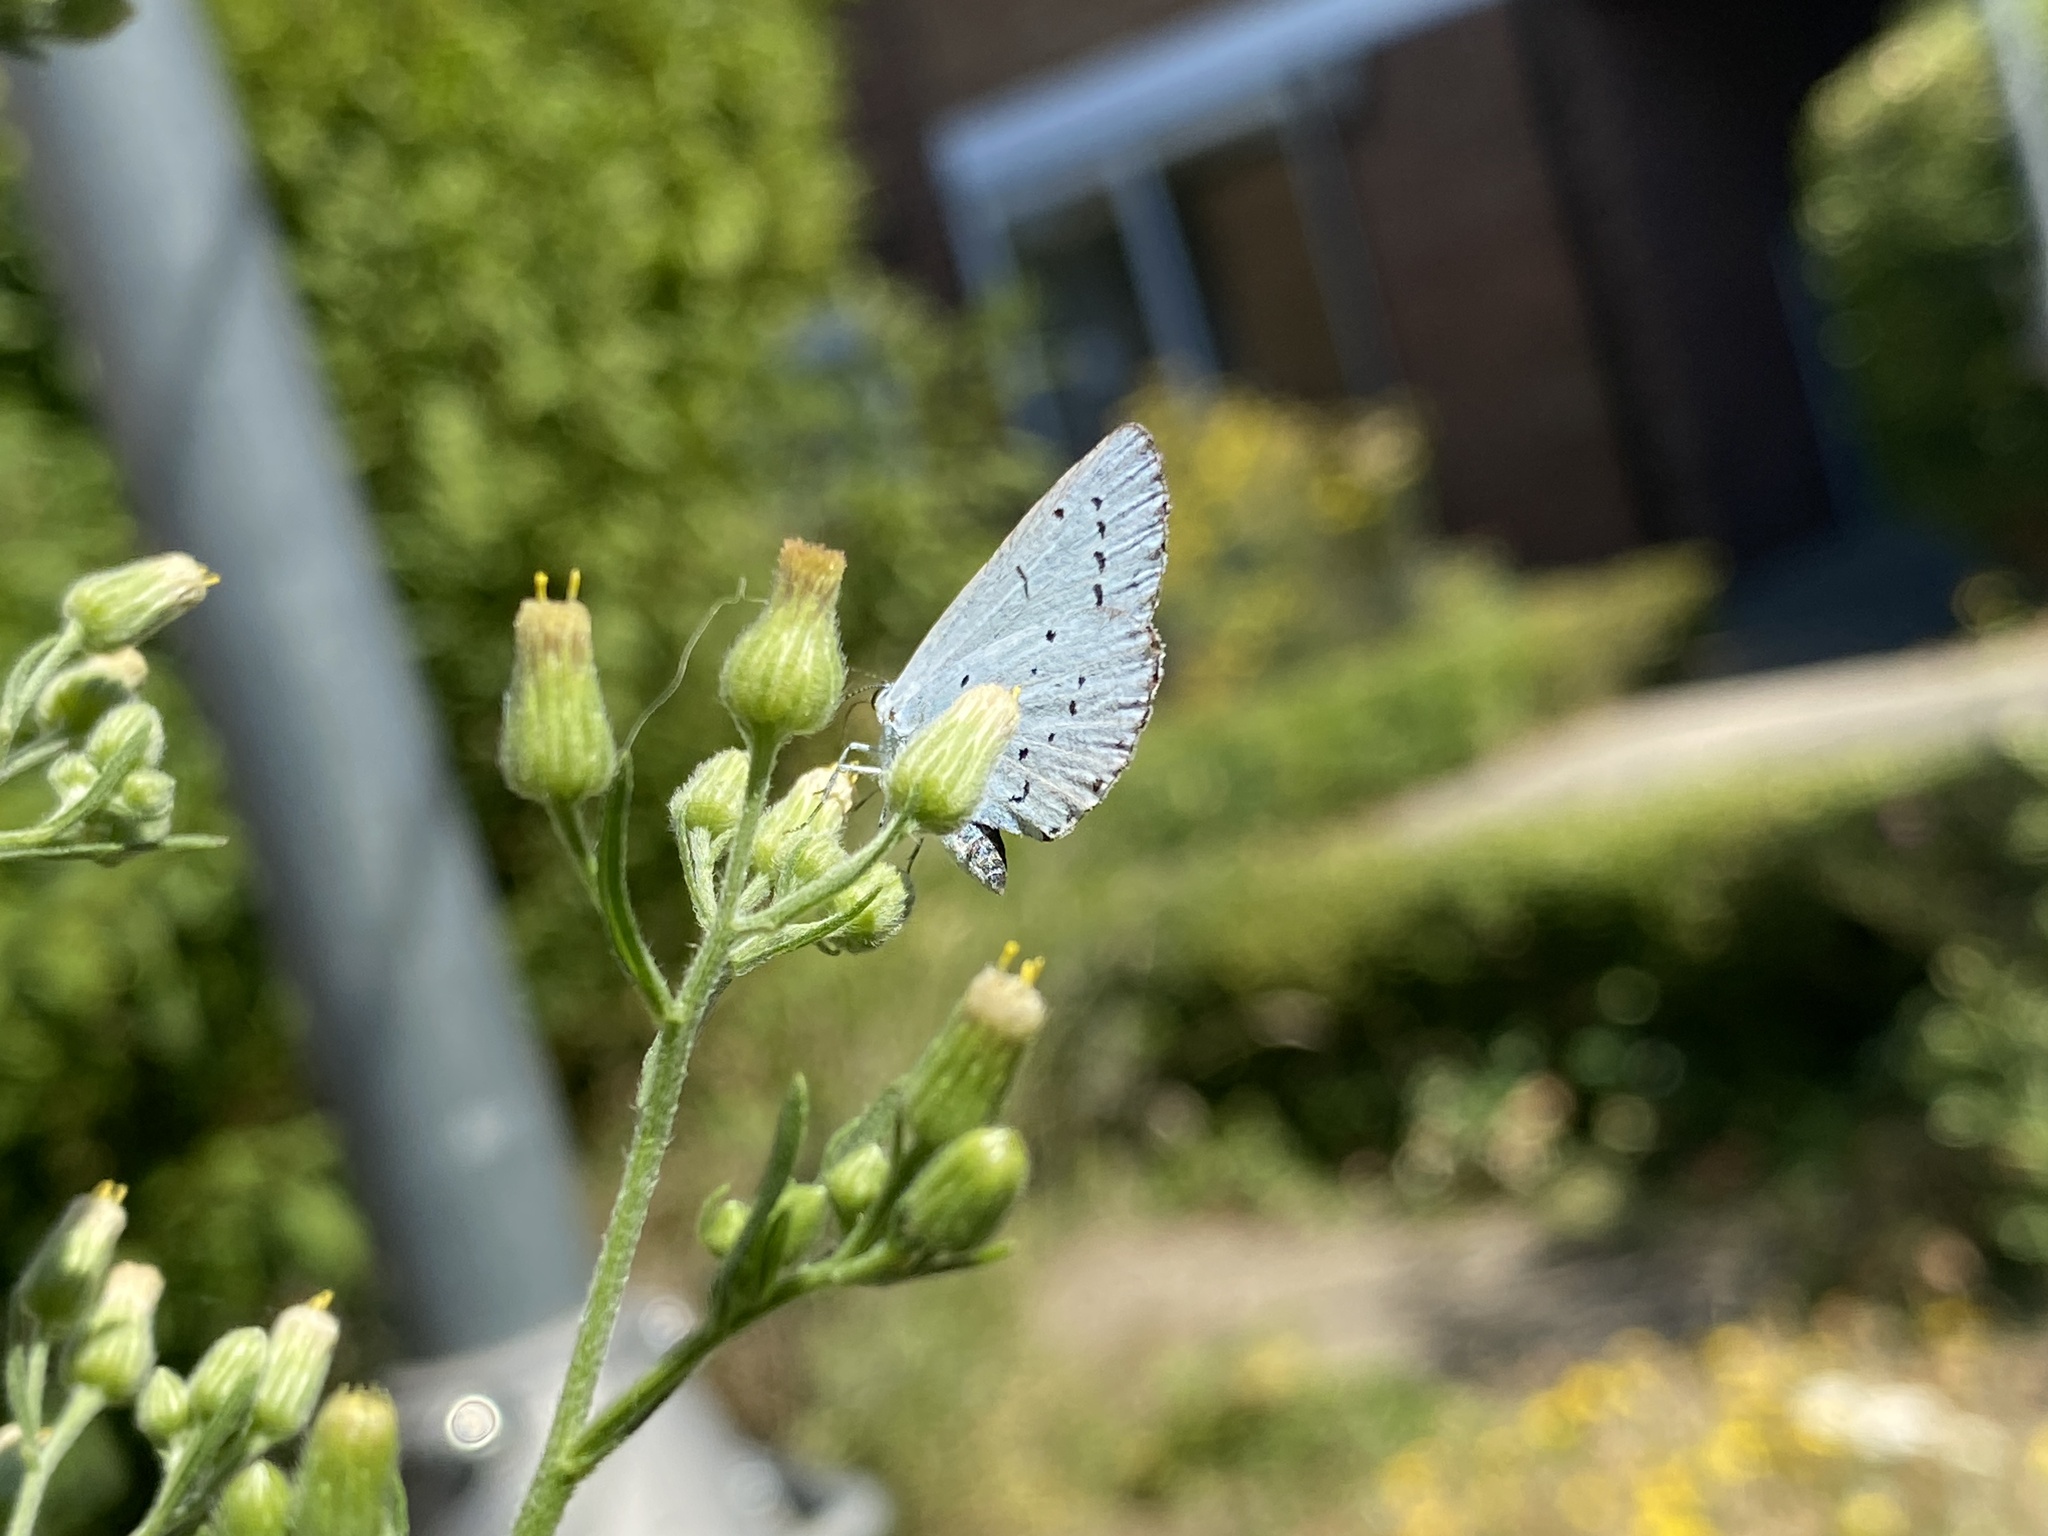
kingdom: Animalia
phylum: Arthropoda
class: Insecta
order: Lepidoptera
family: Lycaenidae
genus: Celastrina
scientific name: Celastrina argiolus
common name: Holly blue
